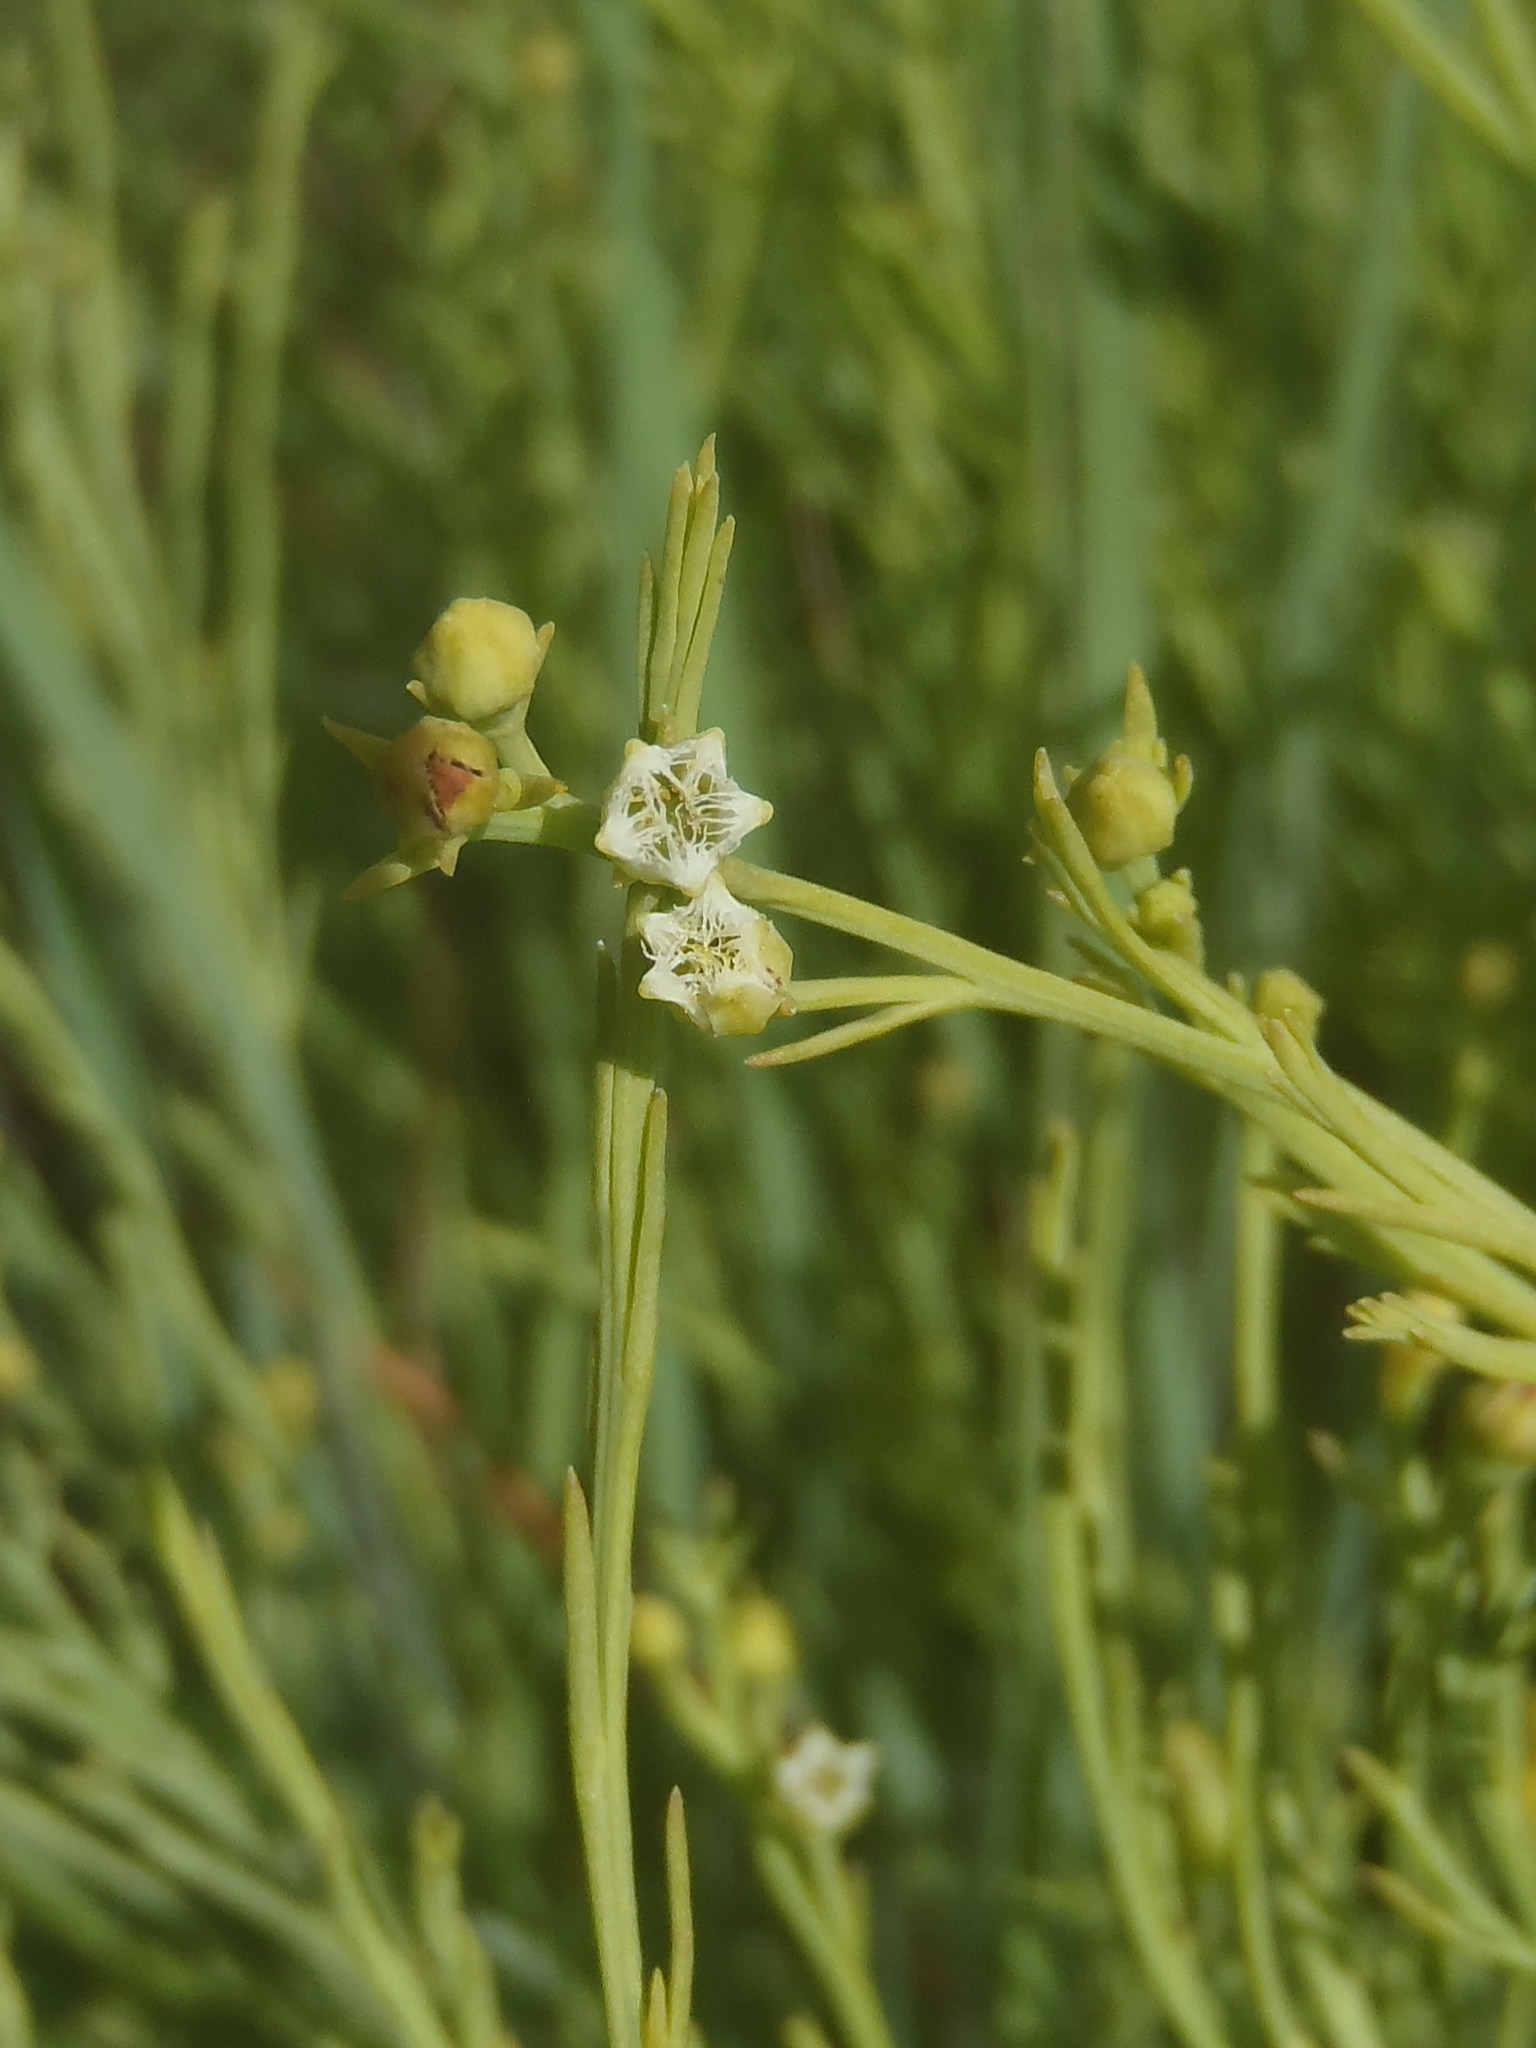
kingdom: Plantae
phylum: Tracheophyta
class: Magnoliopsida
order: Santalales
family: Thesiaceae
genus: Thesium
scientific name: Thesium utile
